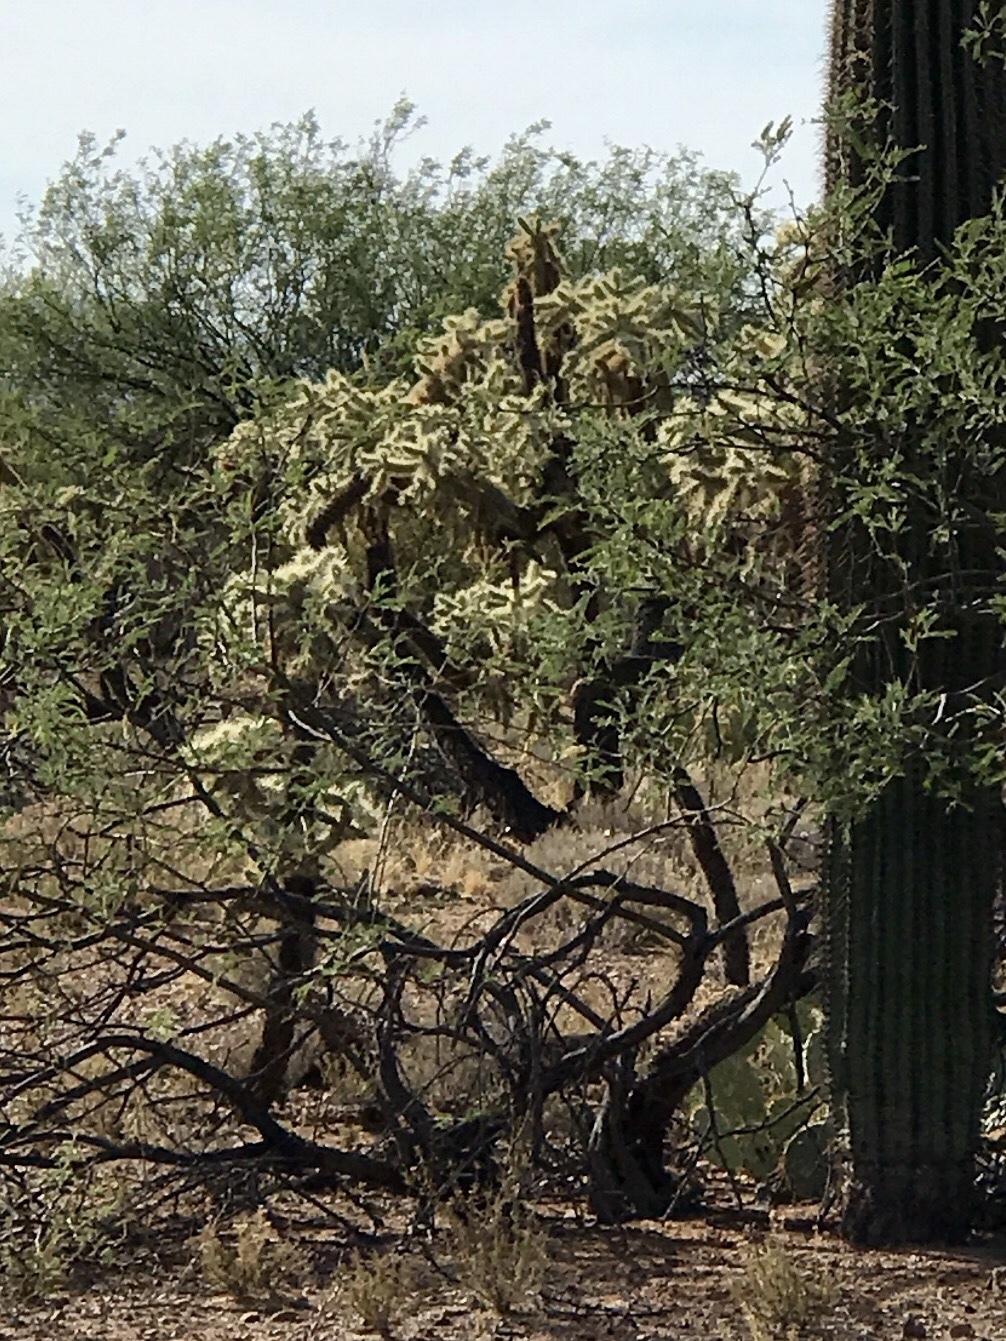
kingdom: Plantae
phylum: Tracheophyta
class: Magnoliopsida
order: Caryophyllales
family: Cactaceae
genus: Cylindropuntia
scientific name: Cylindropuntia fulgida
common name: Jumping cholla
